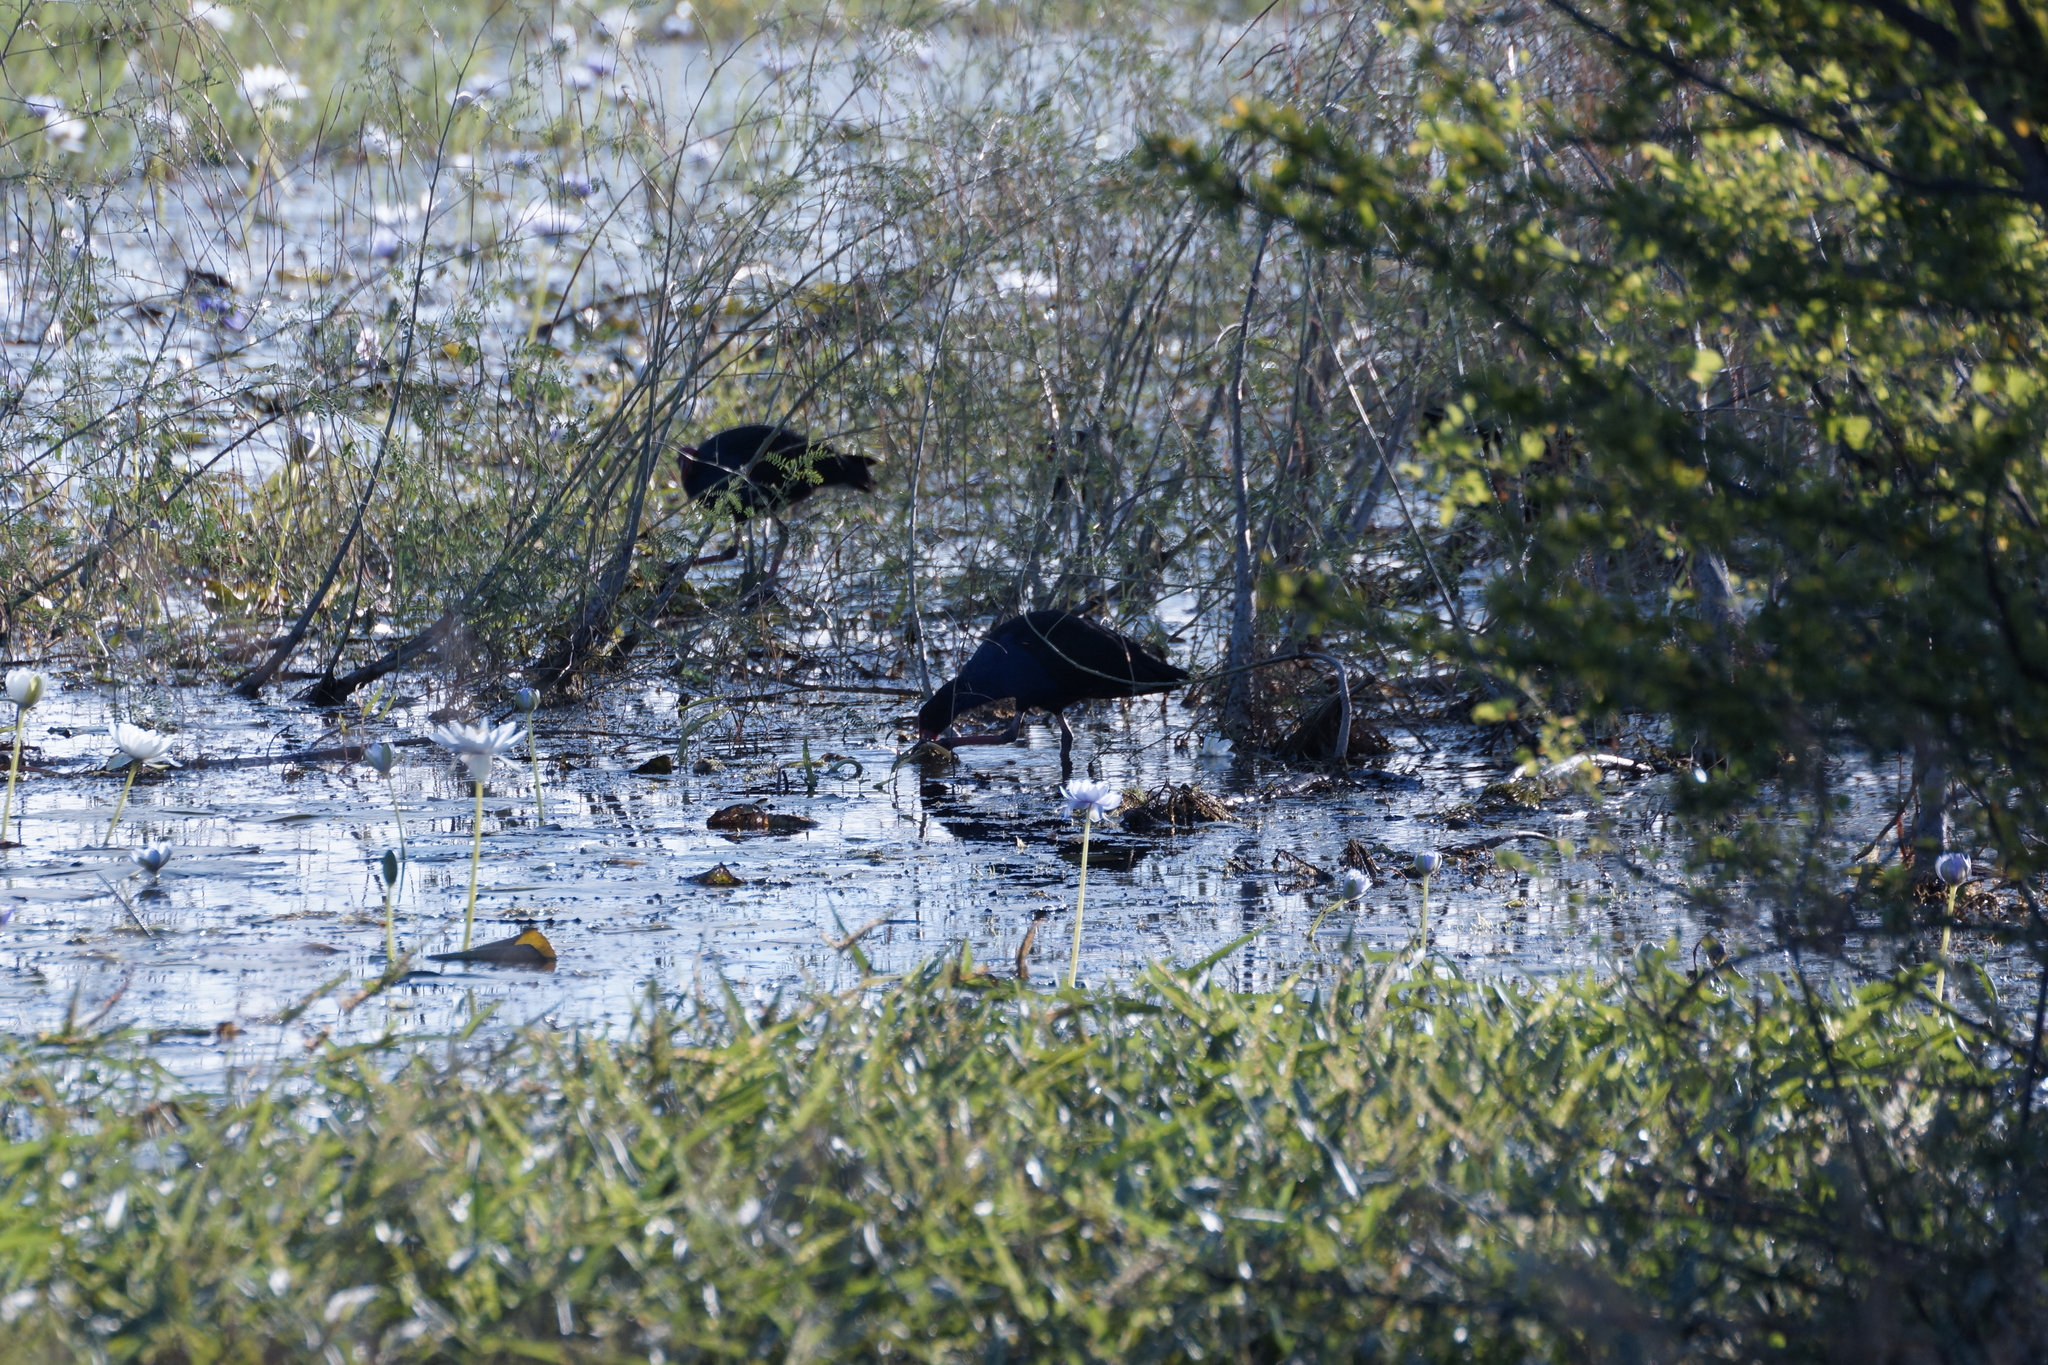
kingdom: Animalia
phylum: Chordata
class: Aves
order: Gruiformes
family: Rallidae
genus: Porphyrio
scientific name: Porphyrio melanotus
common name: Australasian swamphen
